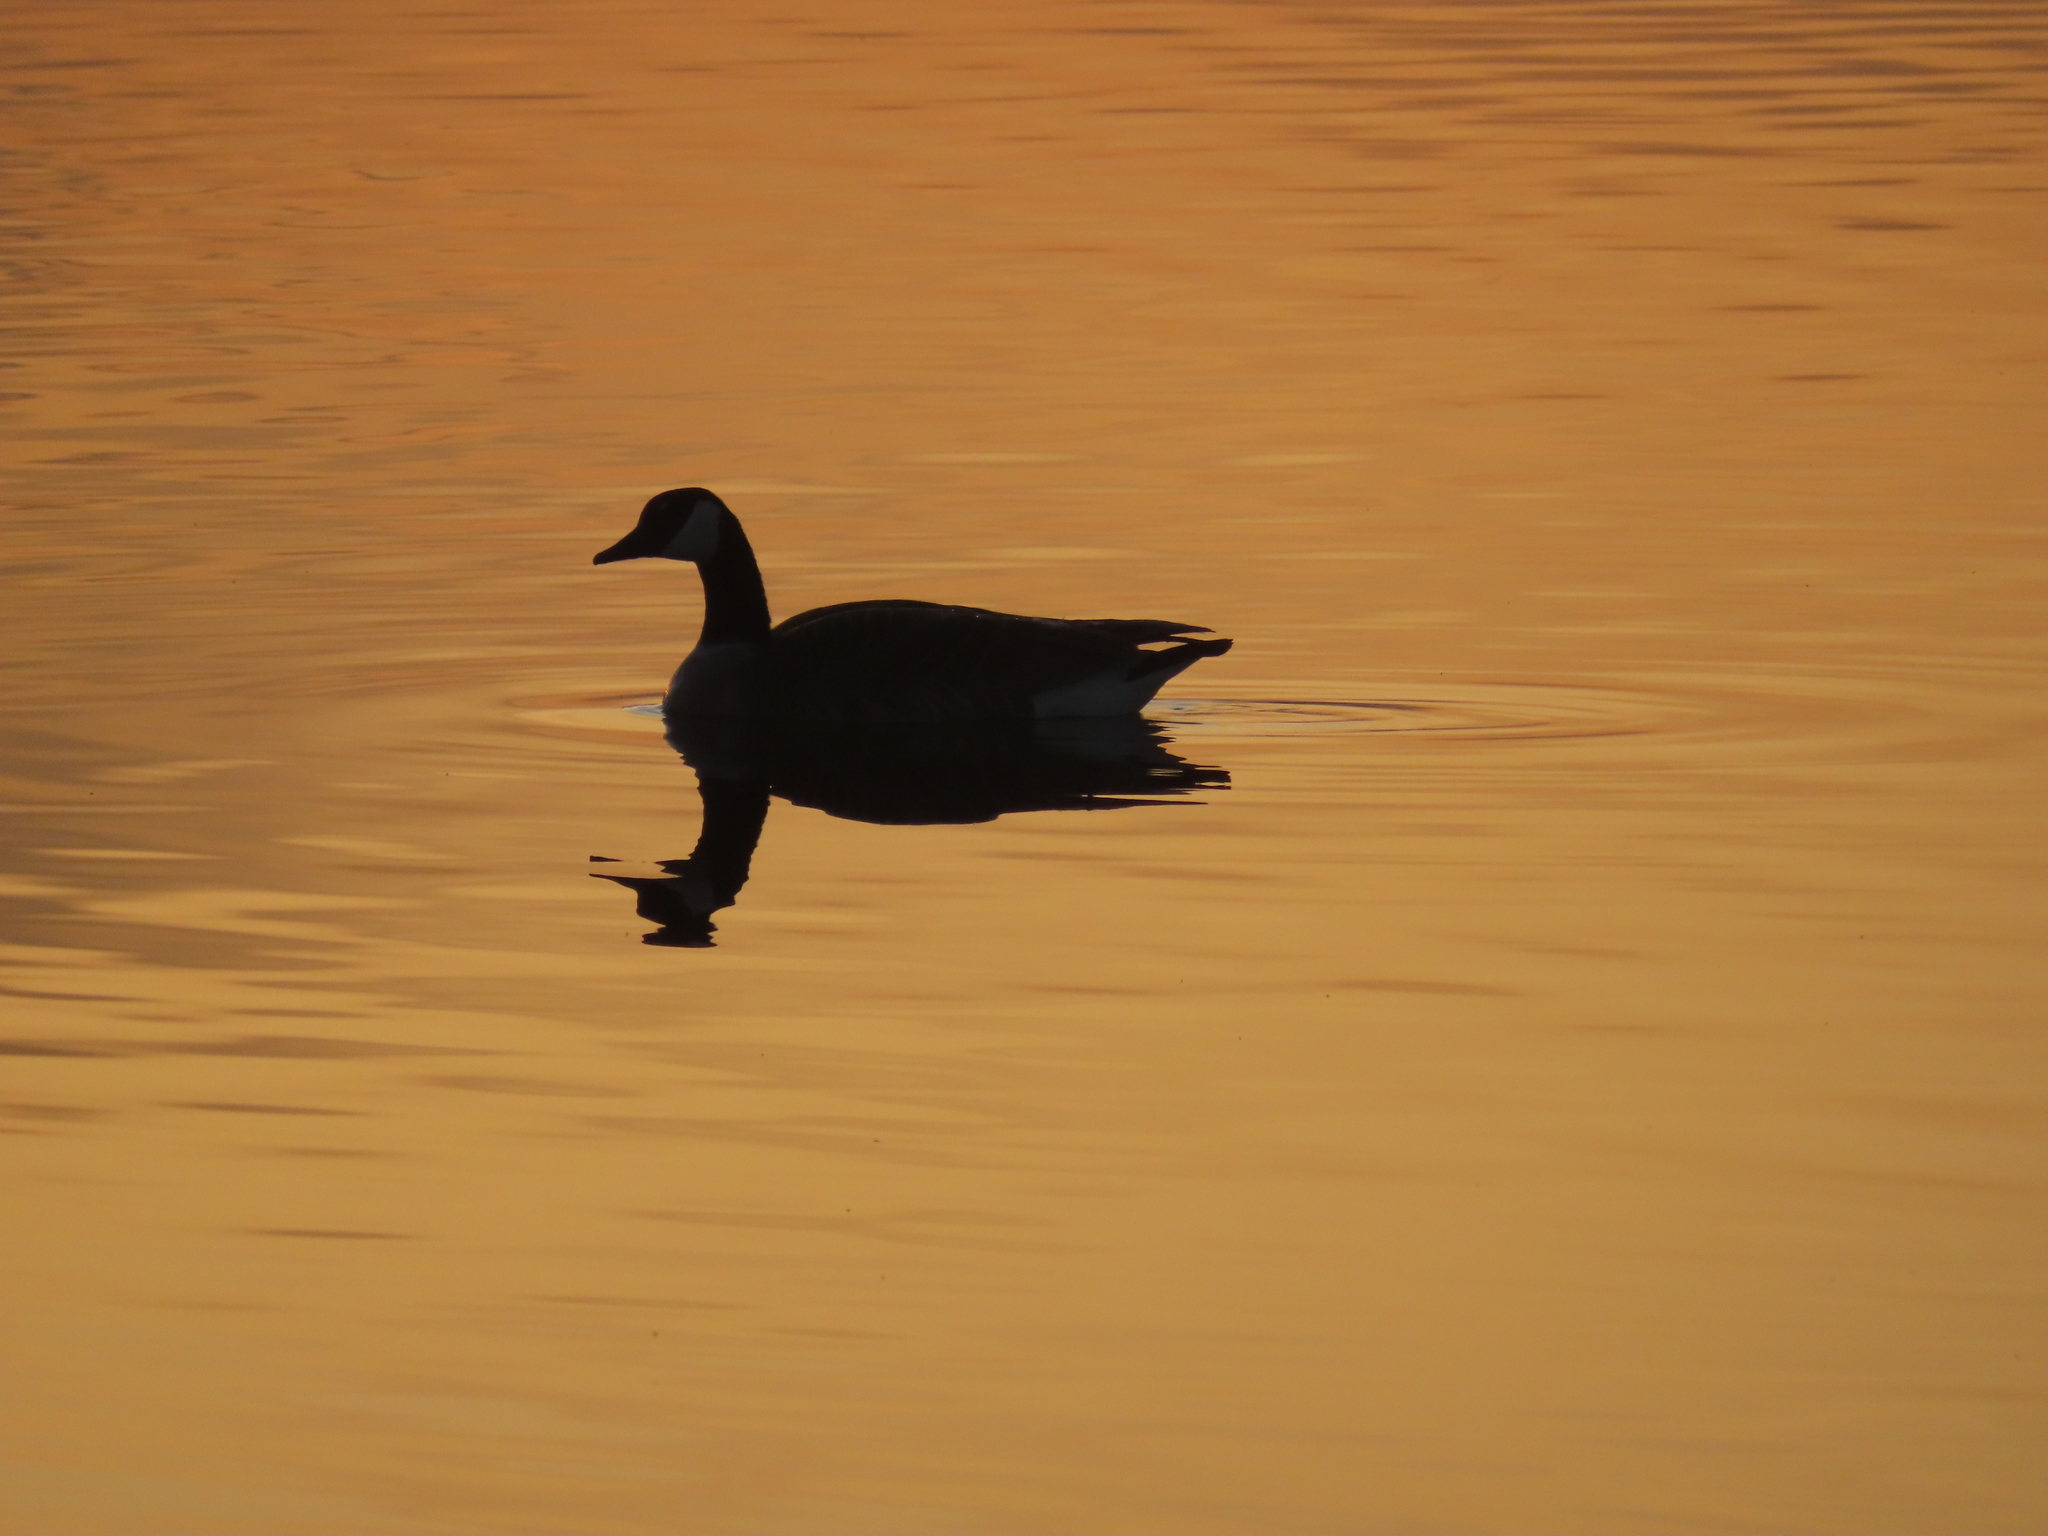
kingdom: Animalia
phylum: Chordata
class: Aves
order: Anseriformes
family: Anatidae
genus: Branta
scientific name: Branta canadensis
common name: Canada goose
